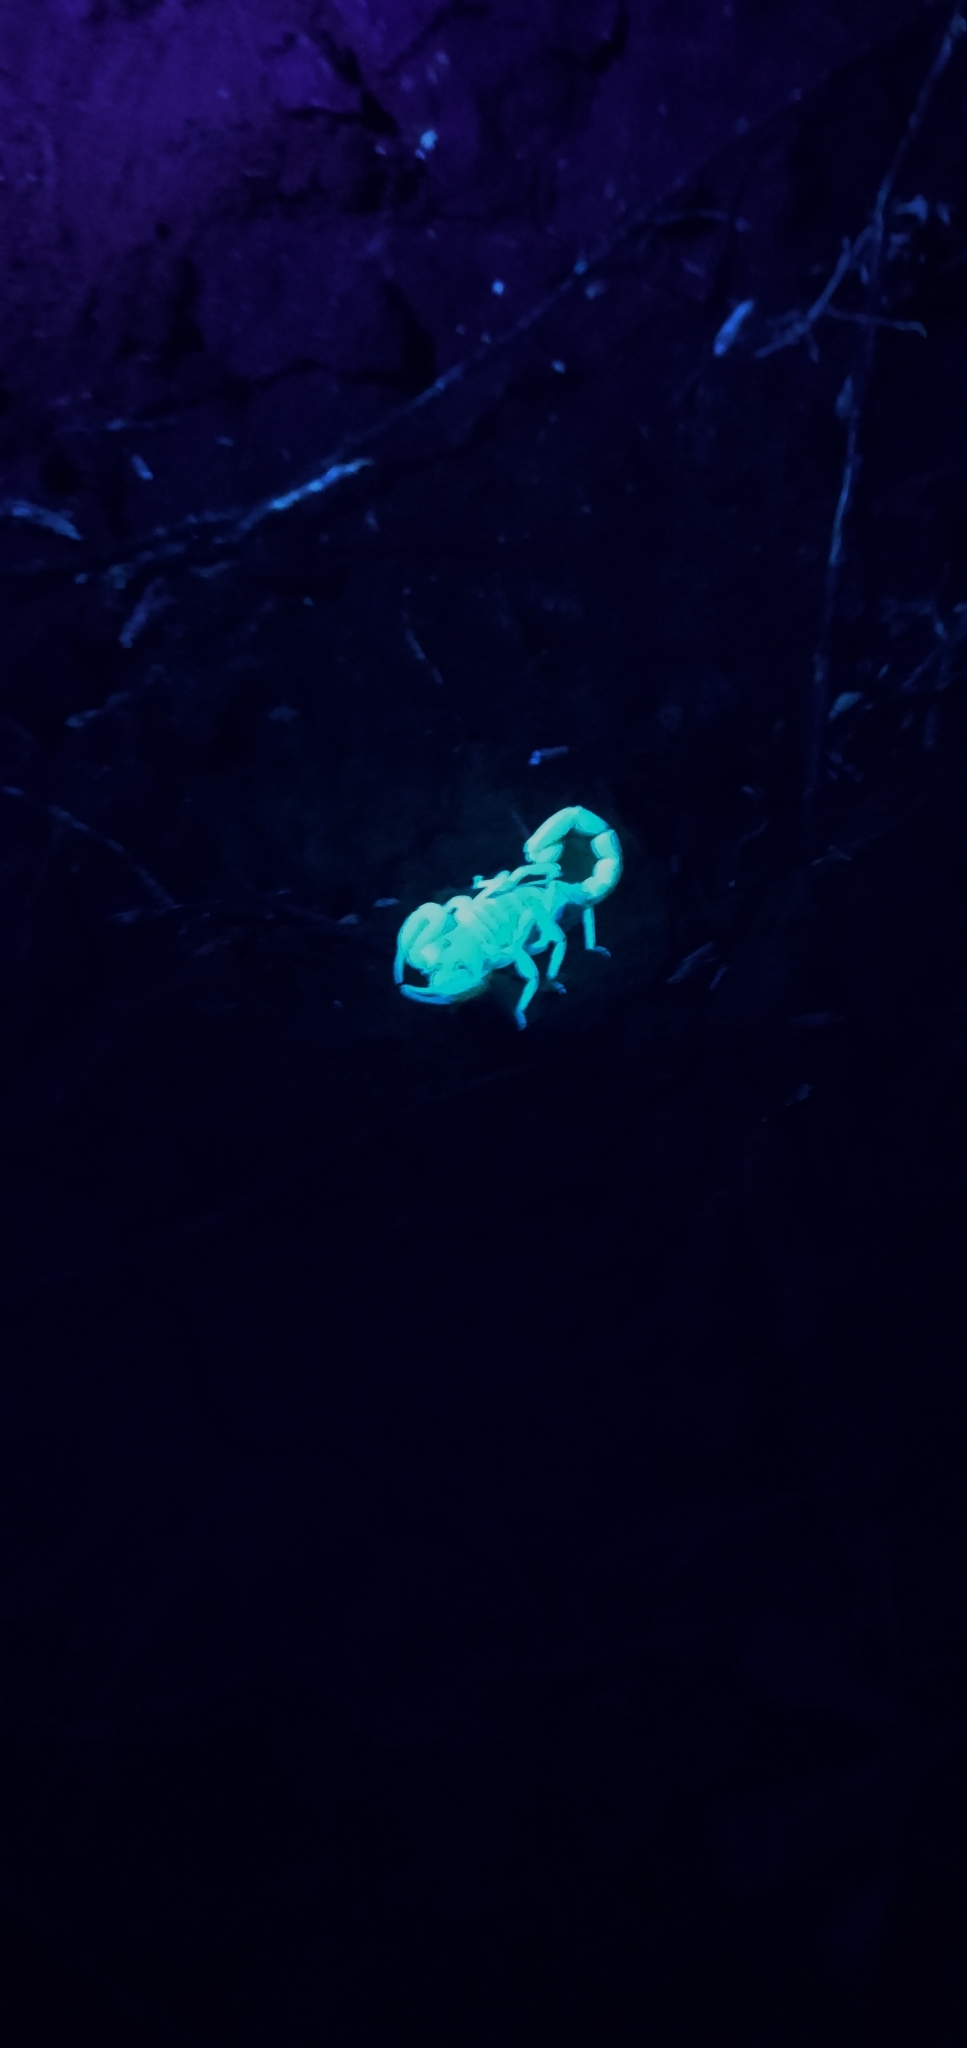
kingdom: Animalia
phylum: Arthropoda
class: Arachnida
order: Scorpiones
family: Vaejovidae
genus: Paruroctonus
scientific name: Paruroctonus boreus
